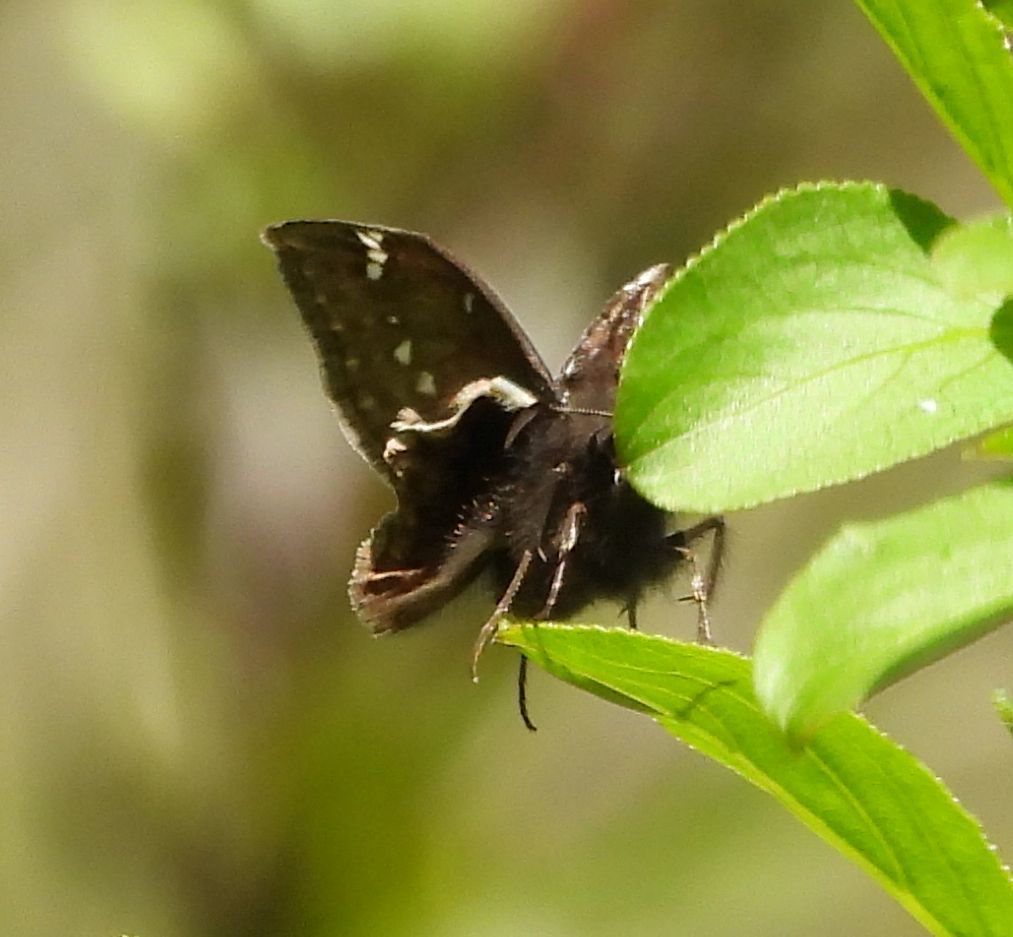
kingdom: Animalia
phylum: Arthropoda
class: Insecta
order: Lepidoptera
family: Hesperiidae
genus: Erynnis
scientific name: Erynnis juvenalis
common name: Juvenal's duskywing
